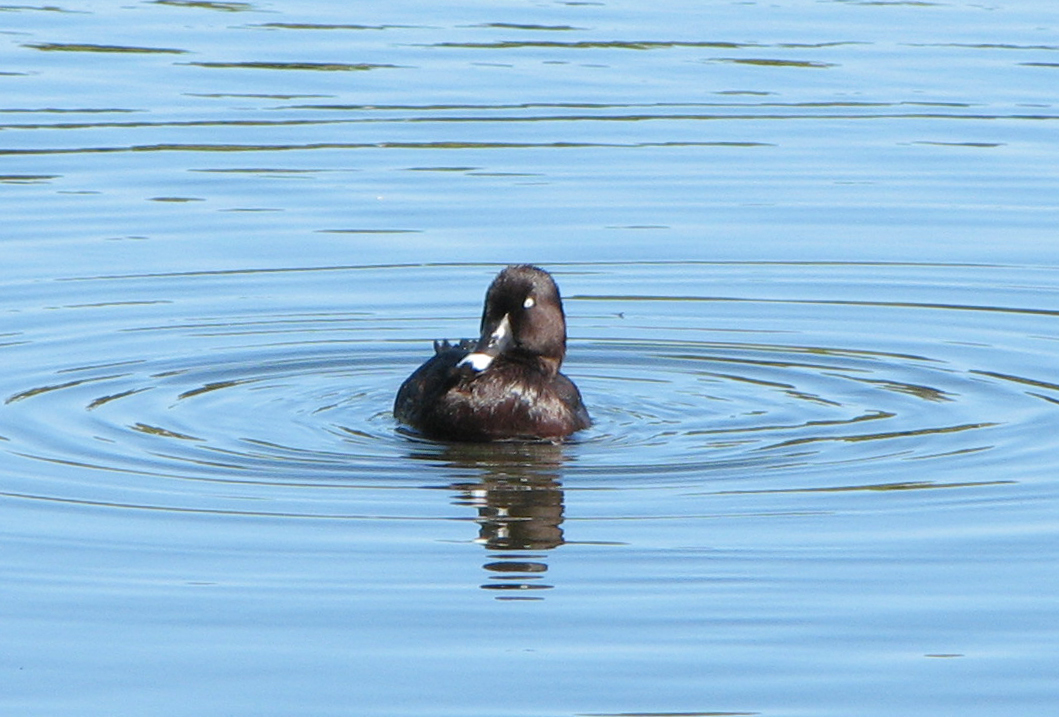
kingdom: Animalia
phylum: Chordata
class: Aves
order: Anseriformes
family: Anatidae
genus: Aythya
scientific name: Aythya australis
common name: Hardhead
